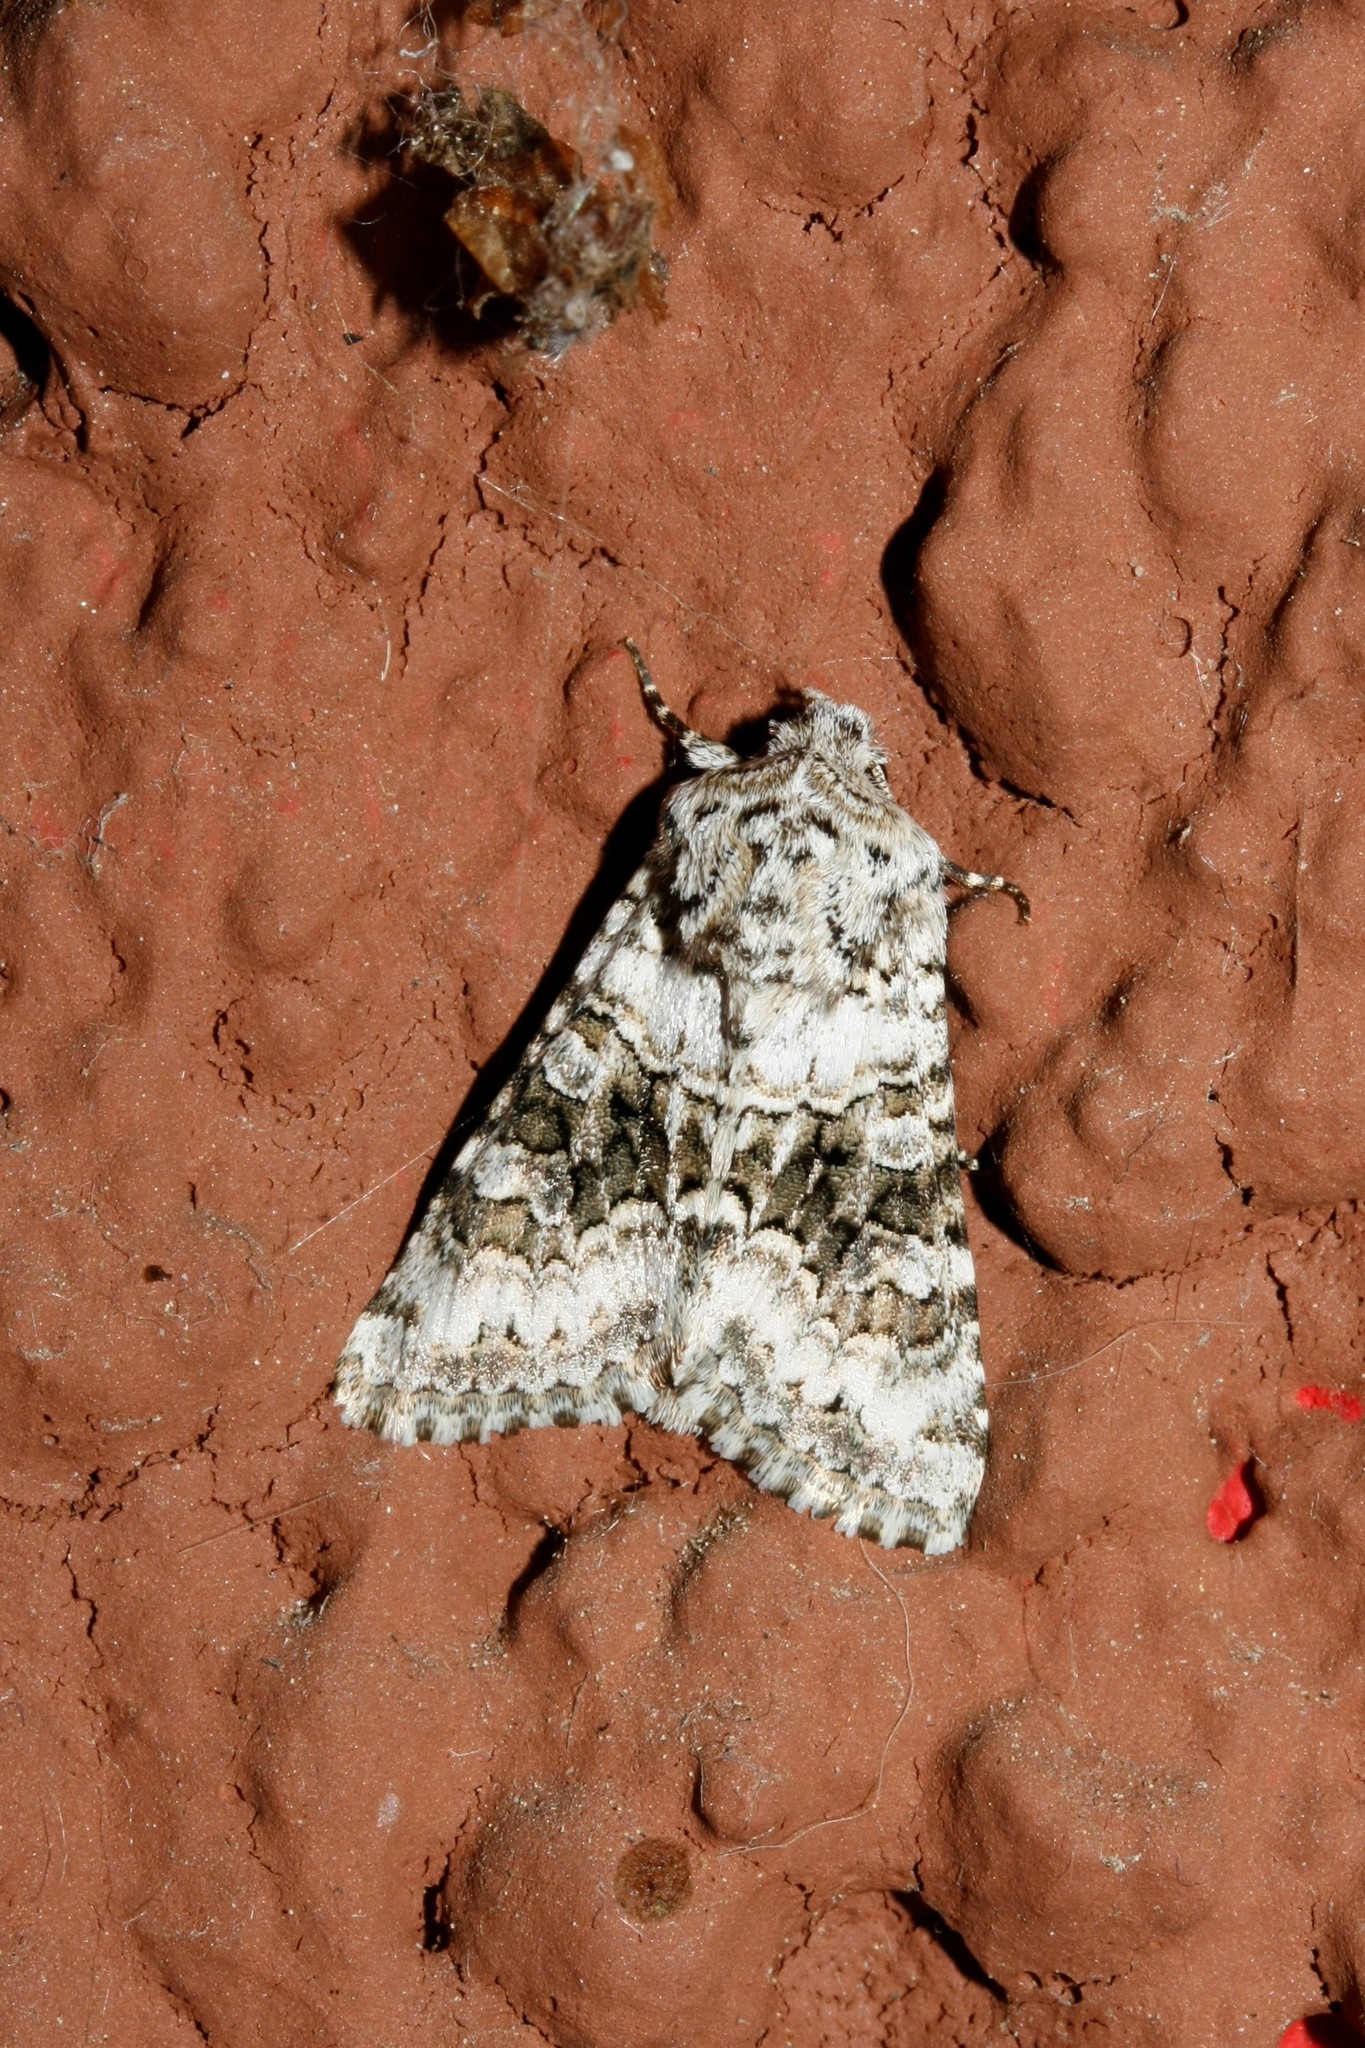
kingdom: Animalia
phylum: Arthropoda
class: Insecta
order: Lepidoptera
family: Noctuidae
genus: Hecatera
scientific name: Hecatera bicolorata
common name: Broad-barred white
